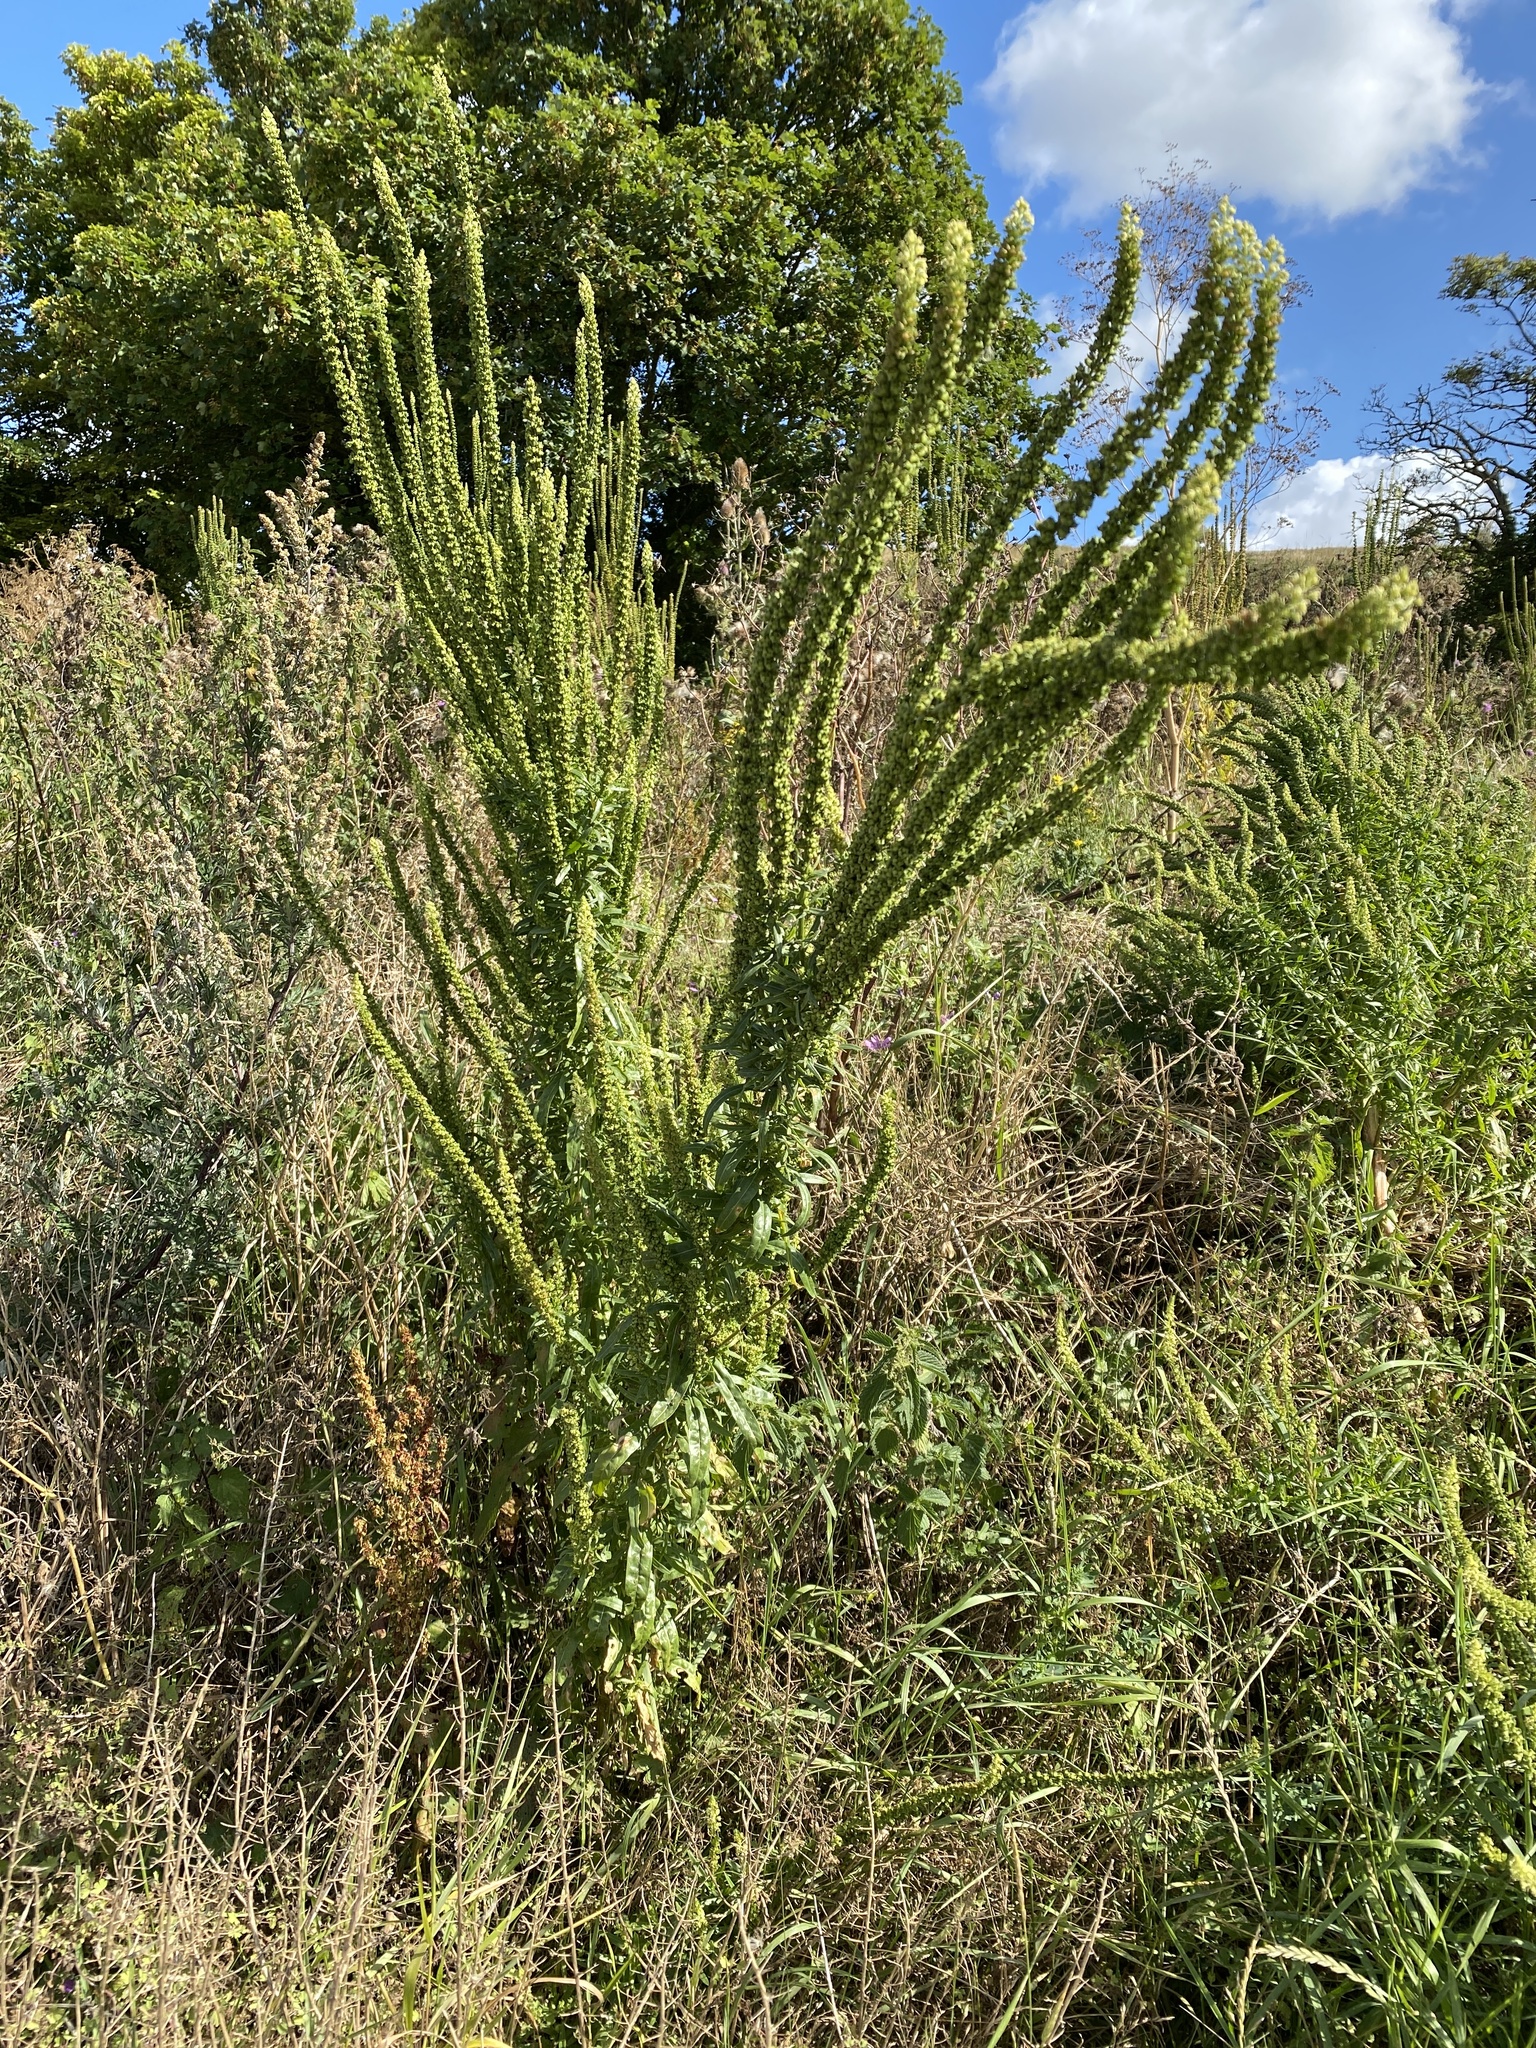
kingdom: Plantae
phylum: Tracheophyta
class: Magnoliopsida
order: Brassicales
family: Resedaceae
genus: Reseda
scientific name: Reseda luteola
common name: Weld
